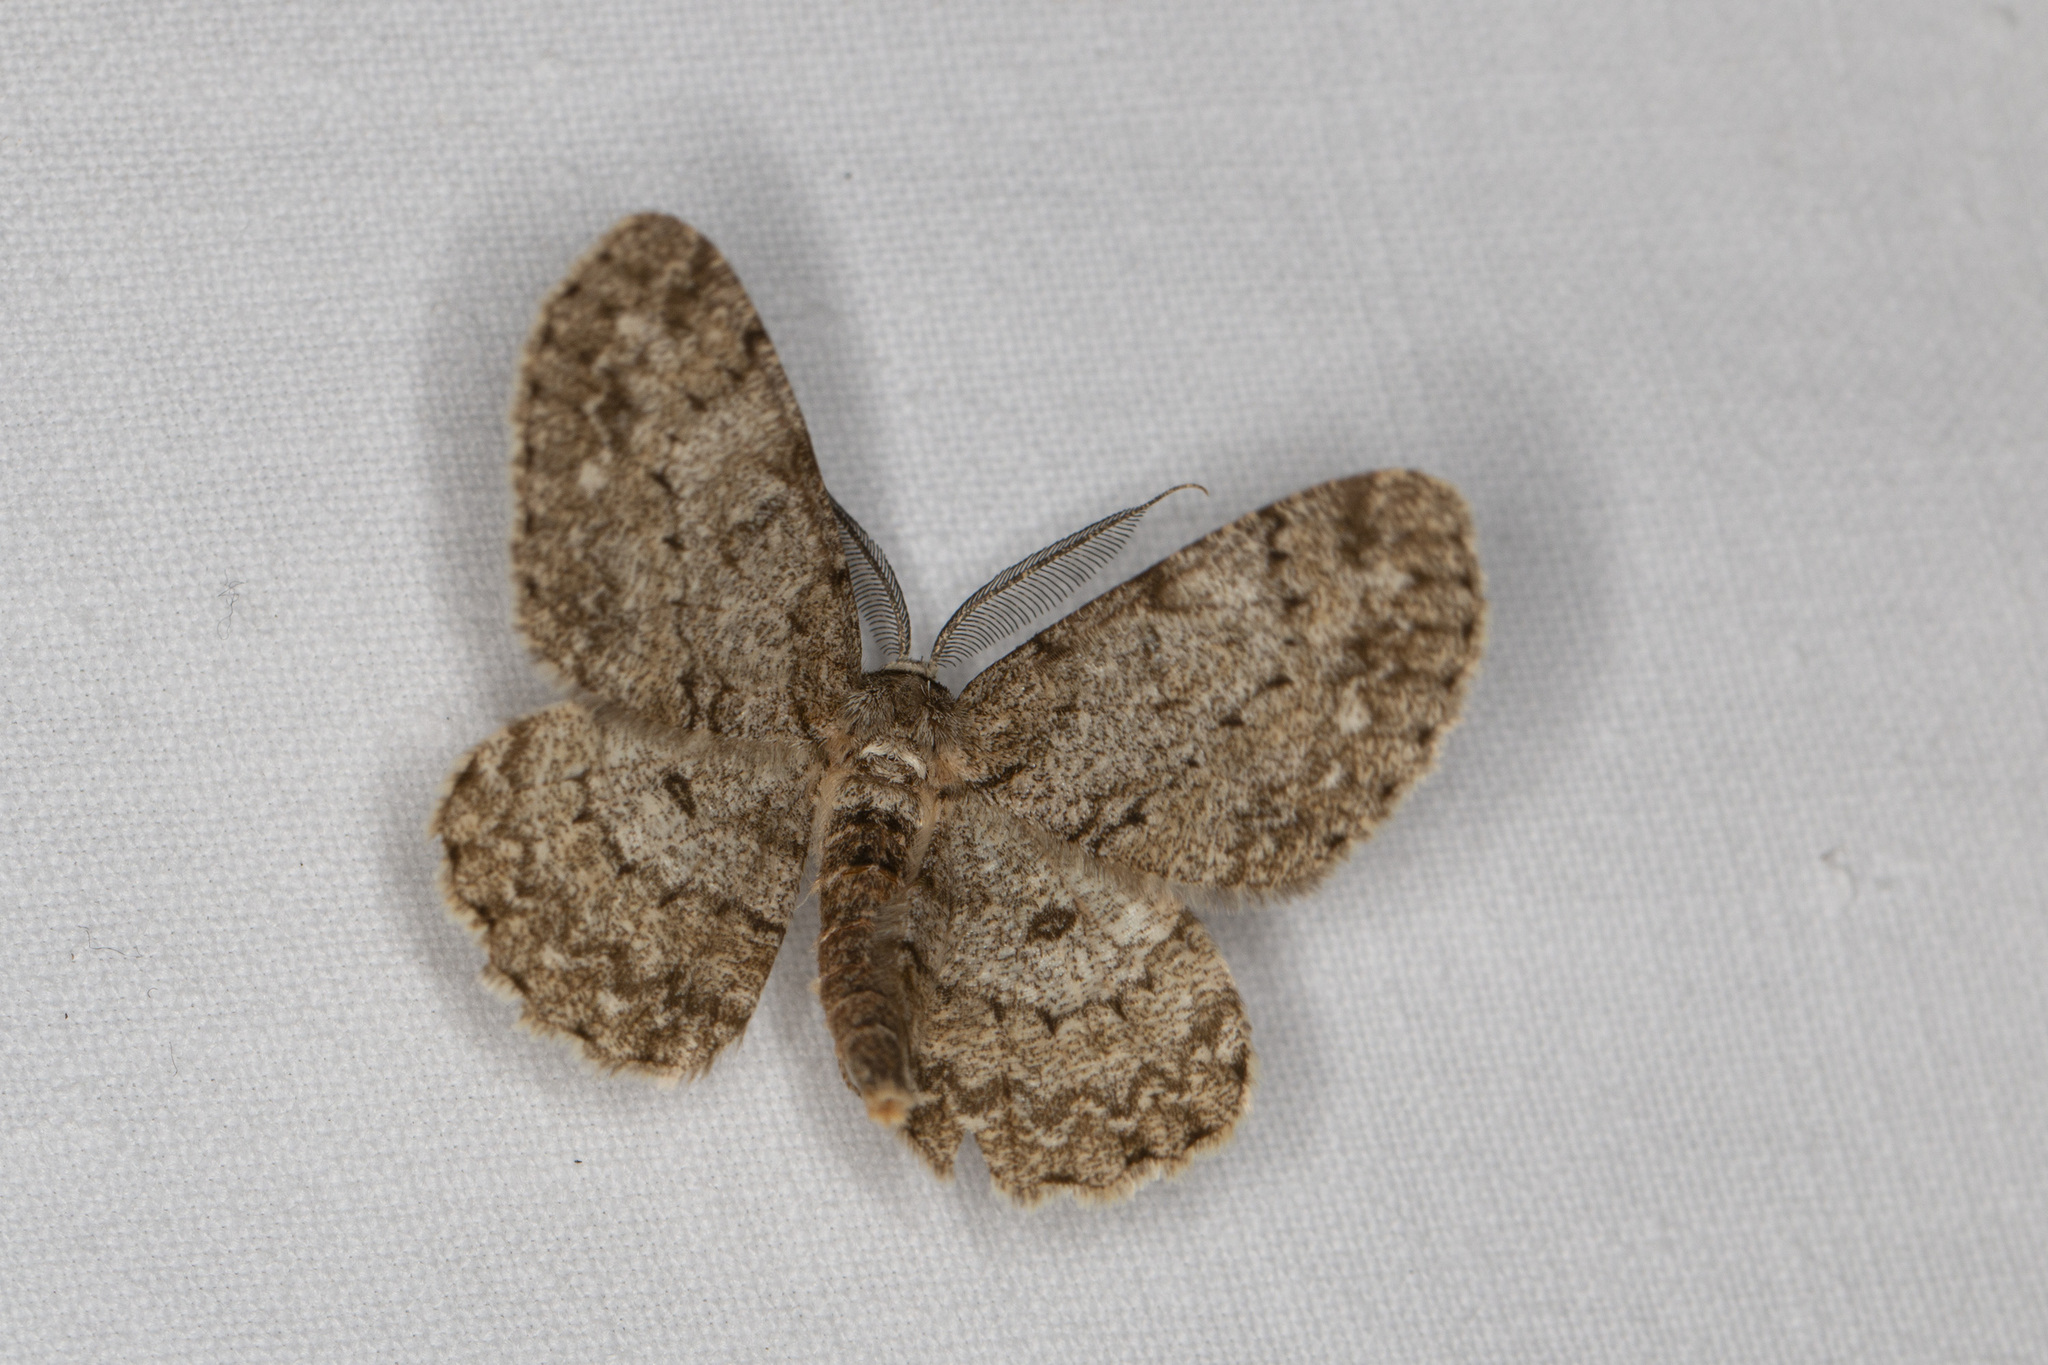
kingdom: Animalia
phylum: Arthropoda
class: Insecta
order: Lepidoptera
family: Geometridae
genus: Hypomecis
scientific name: Hypomecis punctinalis
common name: Pale oak beauty
